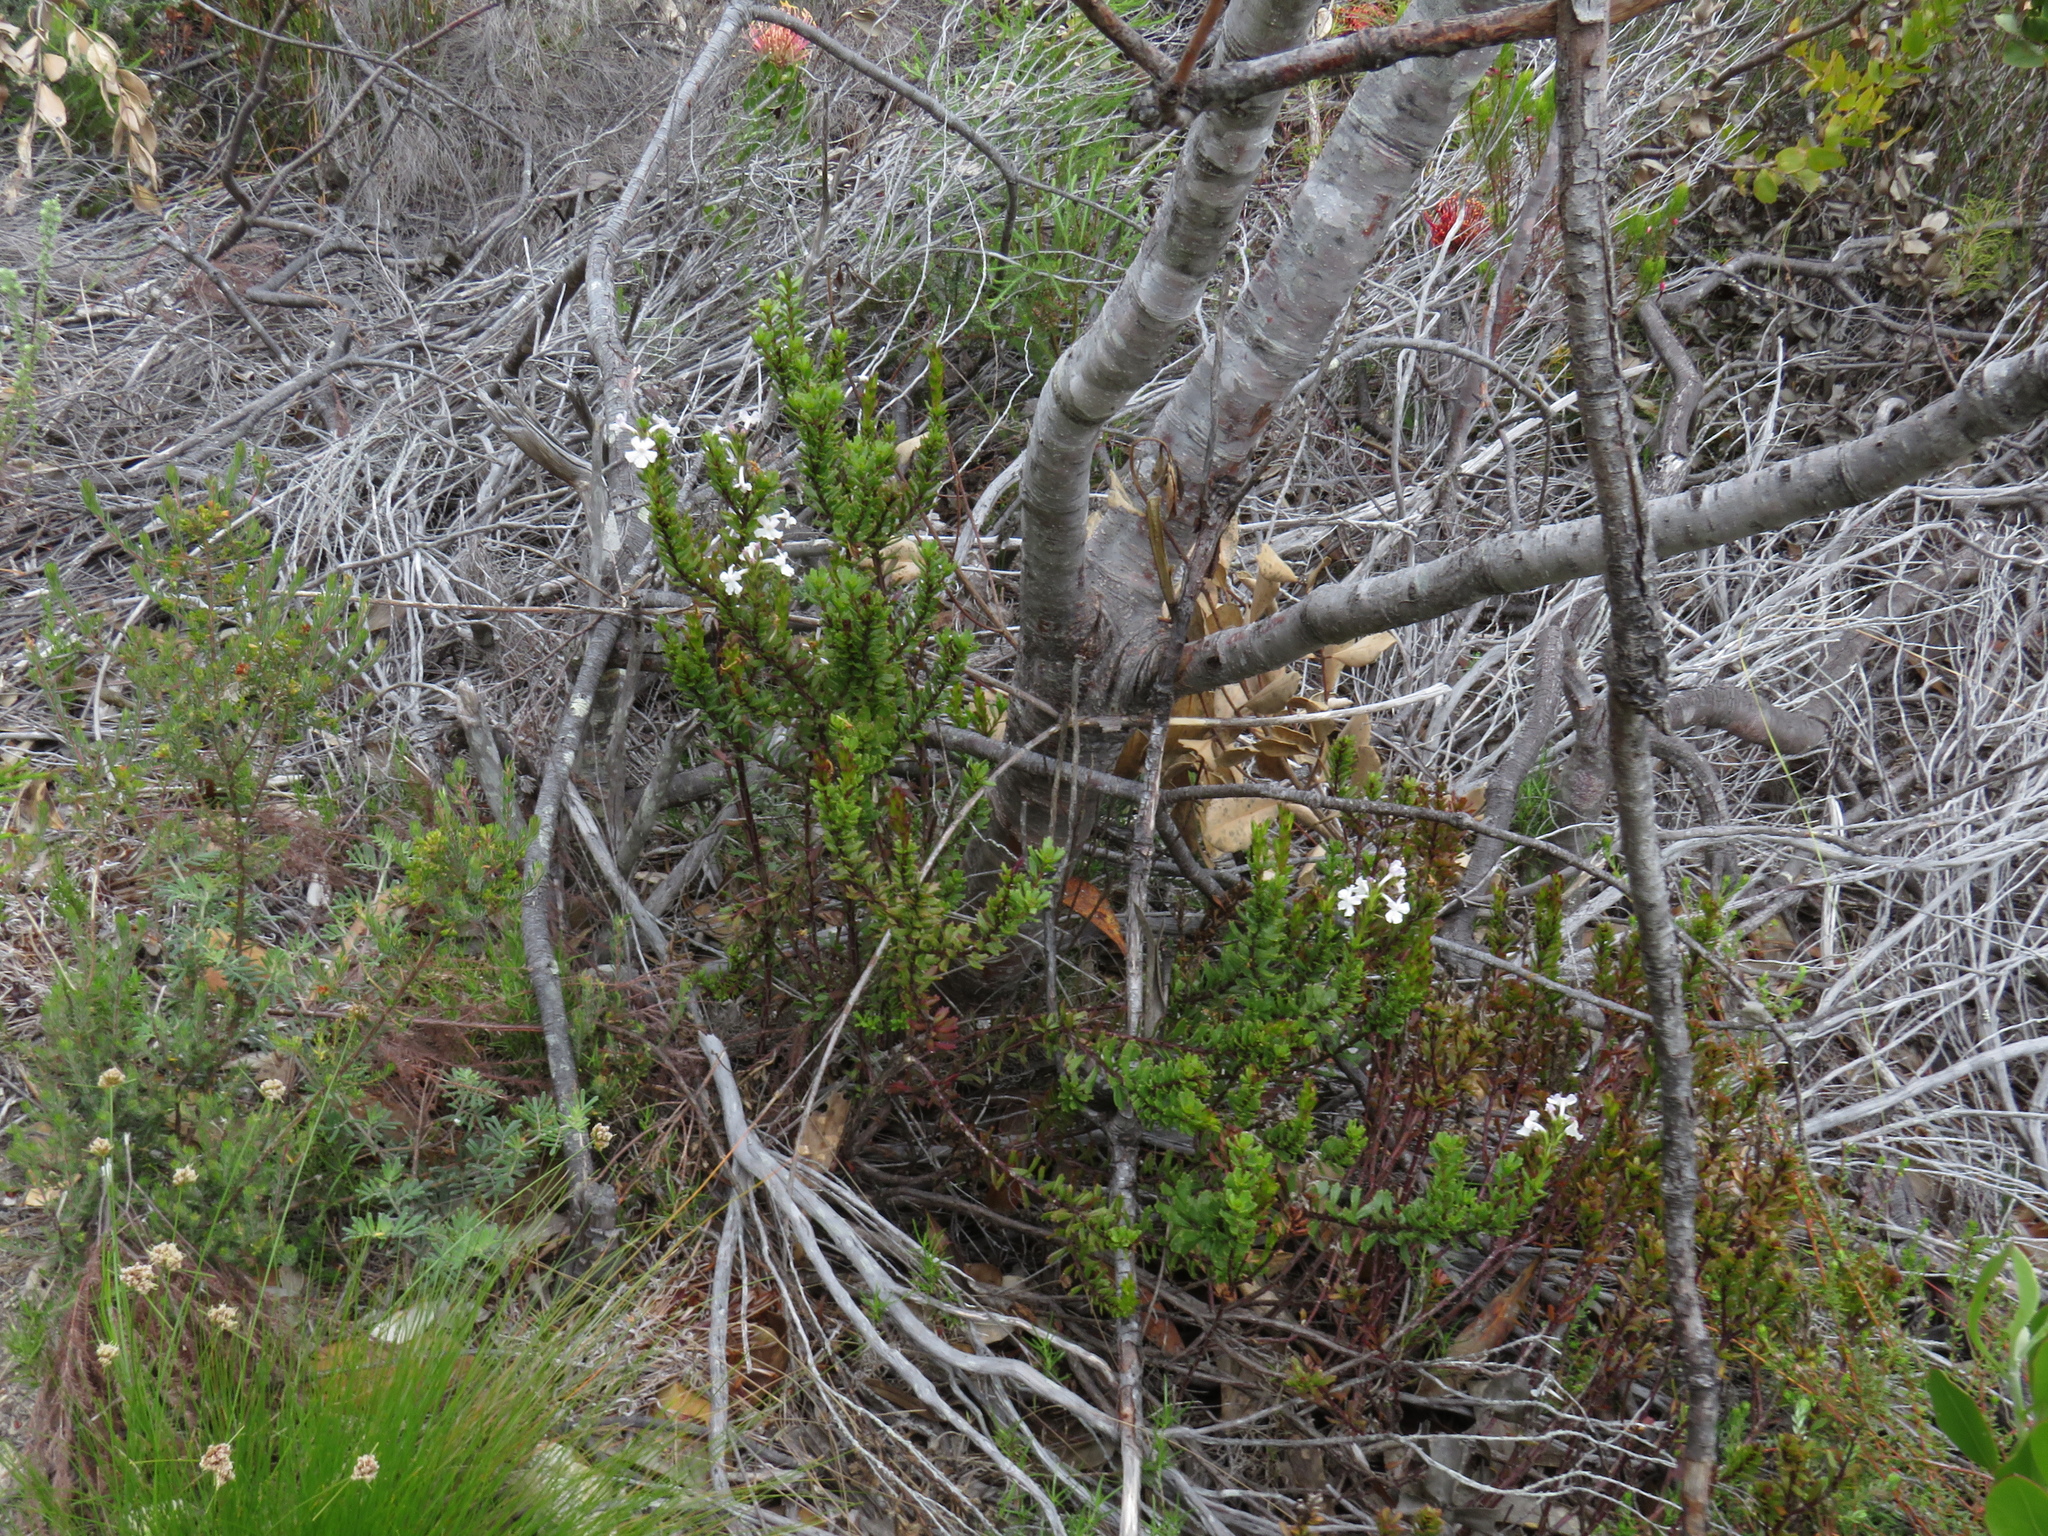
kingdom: Plantae
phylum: Tracheophyta
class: Magnoliopsida
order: Lamiales
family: Verbenaceae
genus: Chascanum
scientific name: Chascanum cernuum
